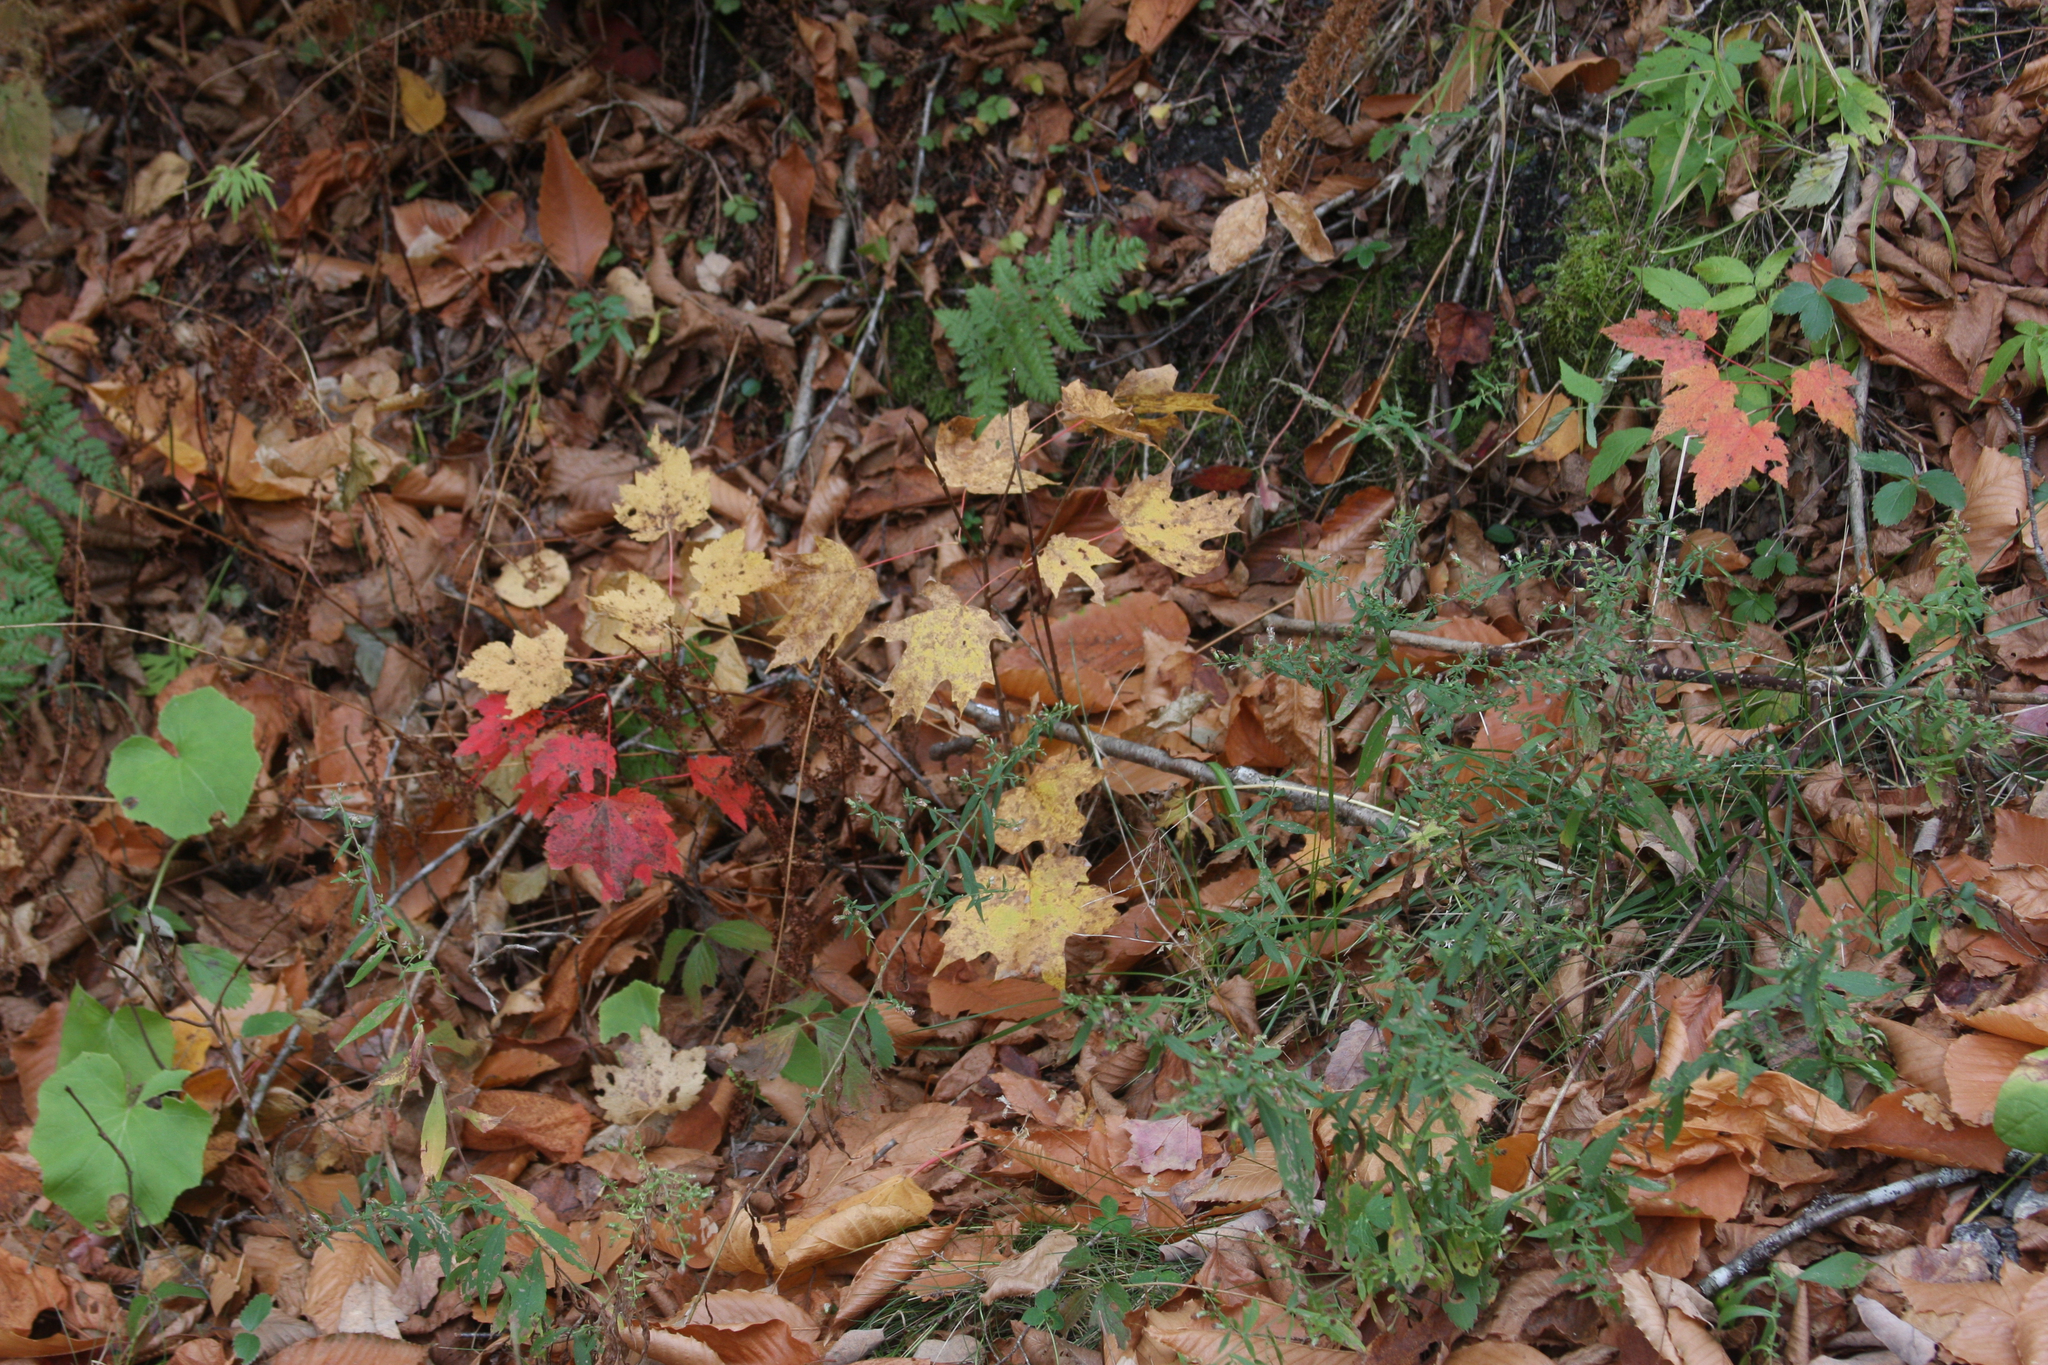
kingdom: Plantae
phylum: Tracheophyta
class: Magnoliopsida
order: Sapindales
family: Sapindaceae
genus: Acer
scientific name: Acer rubrum
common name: Red maple
